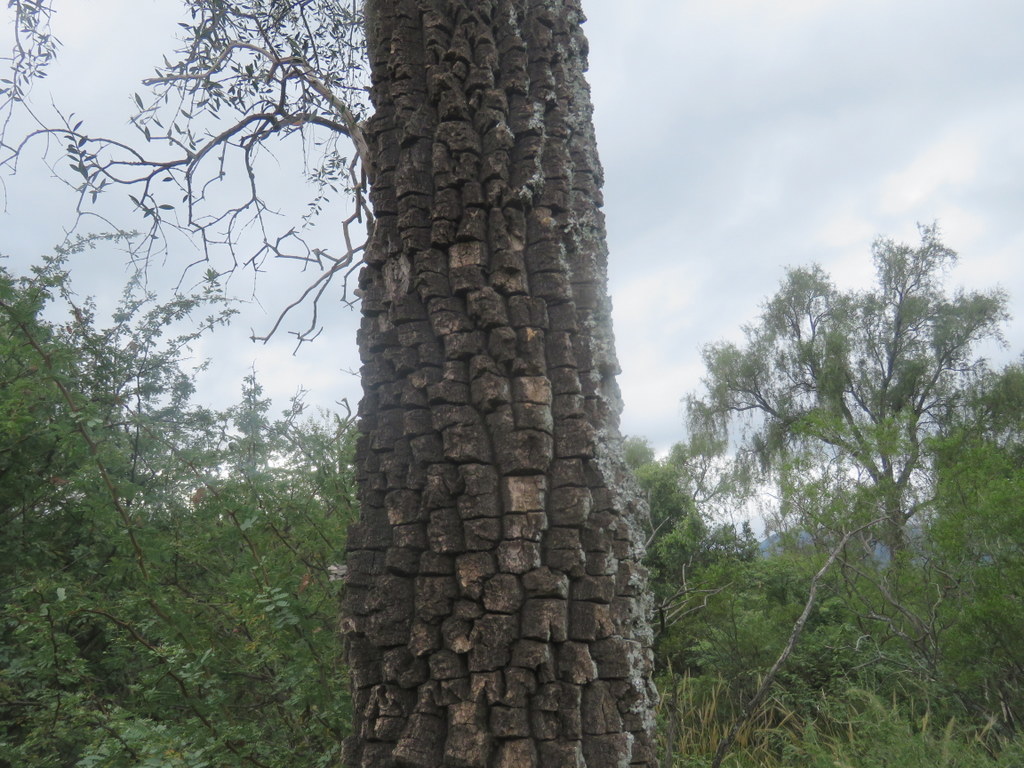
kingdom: Plantae
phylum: Tracheophyta
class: Magnoliopsida
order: Gentianales
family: Apocynaceae
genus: Aspidosperma
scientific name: Aspidosperma quebracho-blanco
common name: White quebracho
